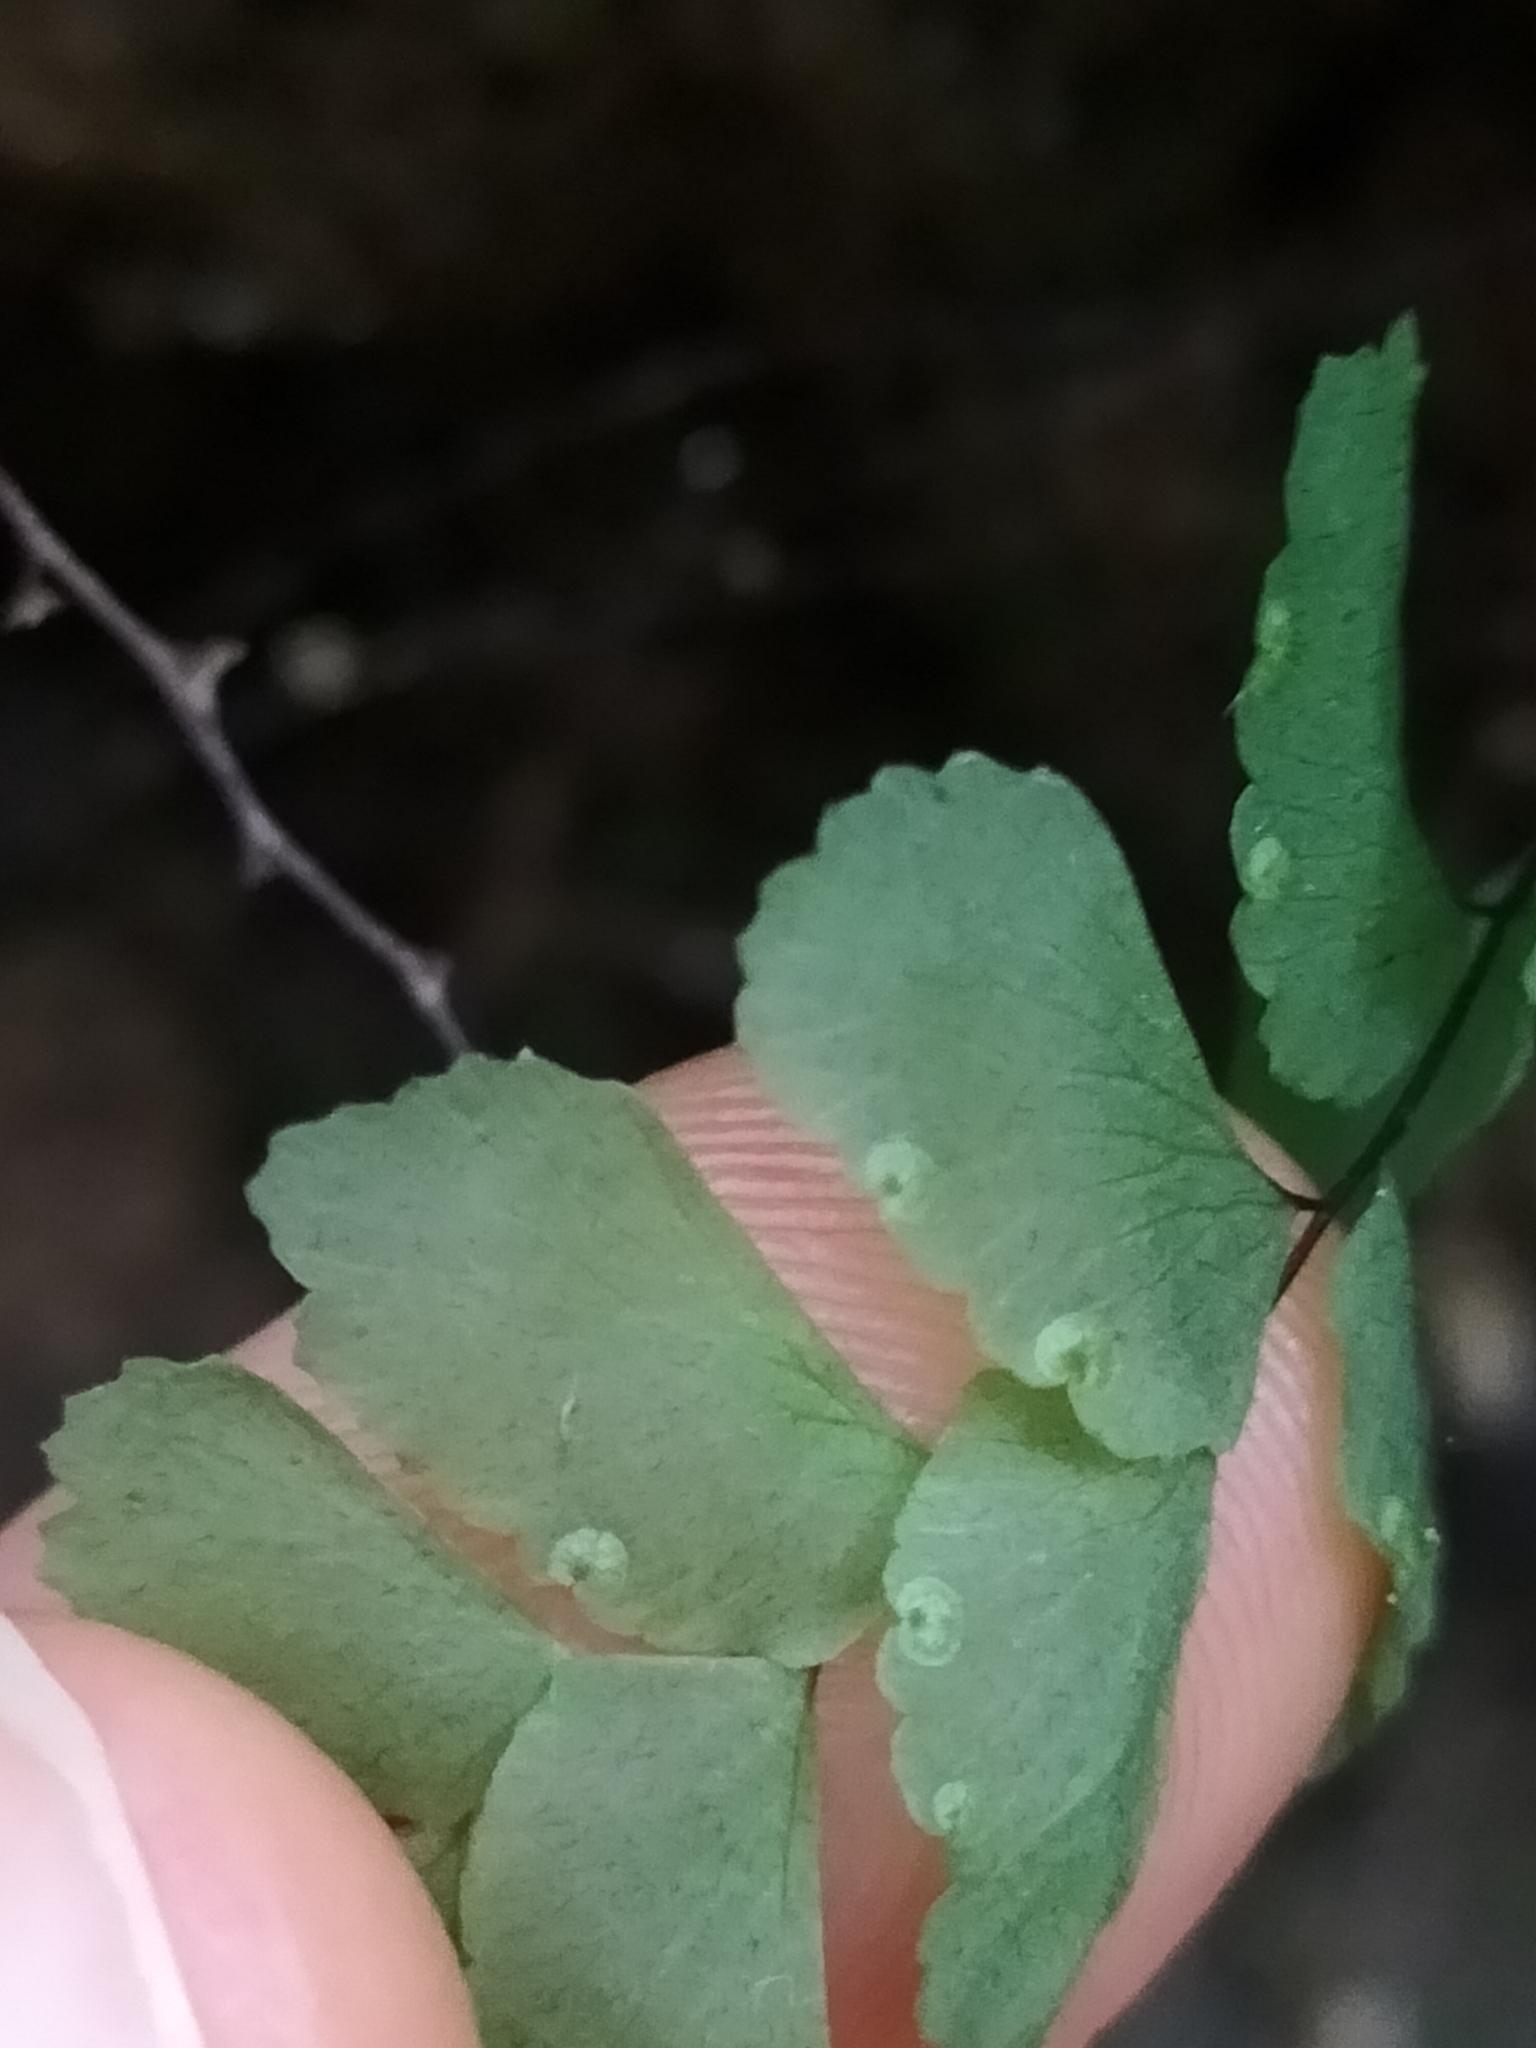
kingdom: Plantae
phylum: Tracheophyta
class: Polypodiopsida
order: Polypodiales
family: Pteridaceae
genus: Adiantum
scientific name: Adiantum diaphanum
